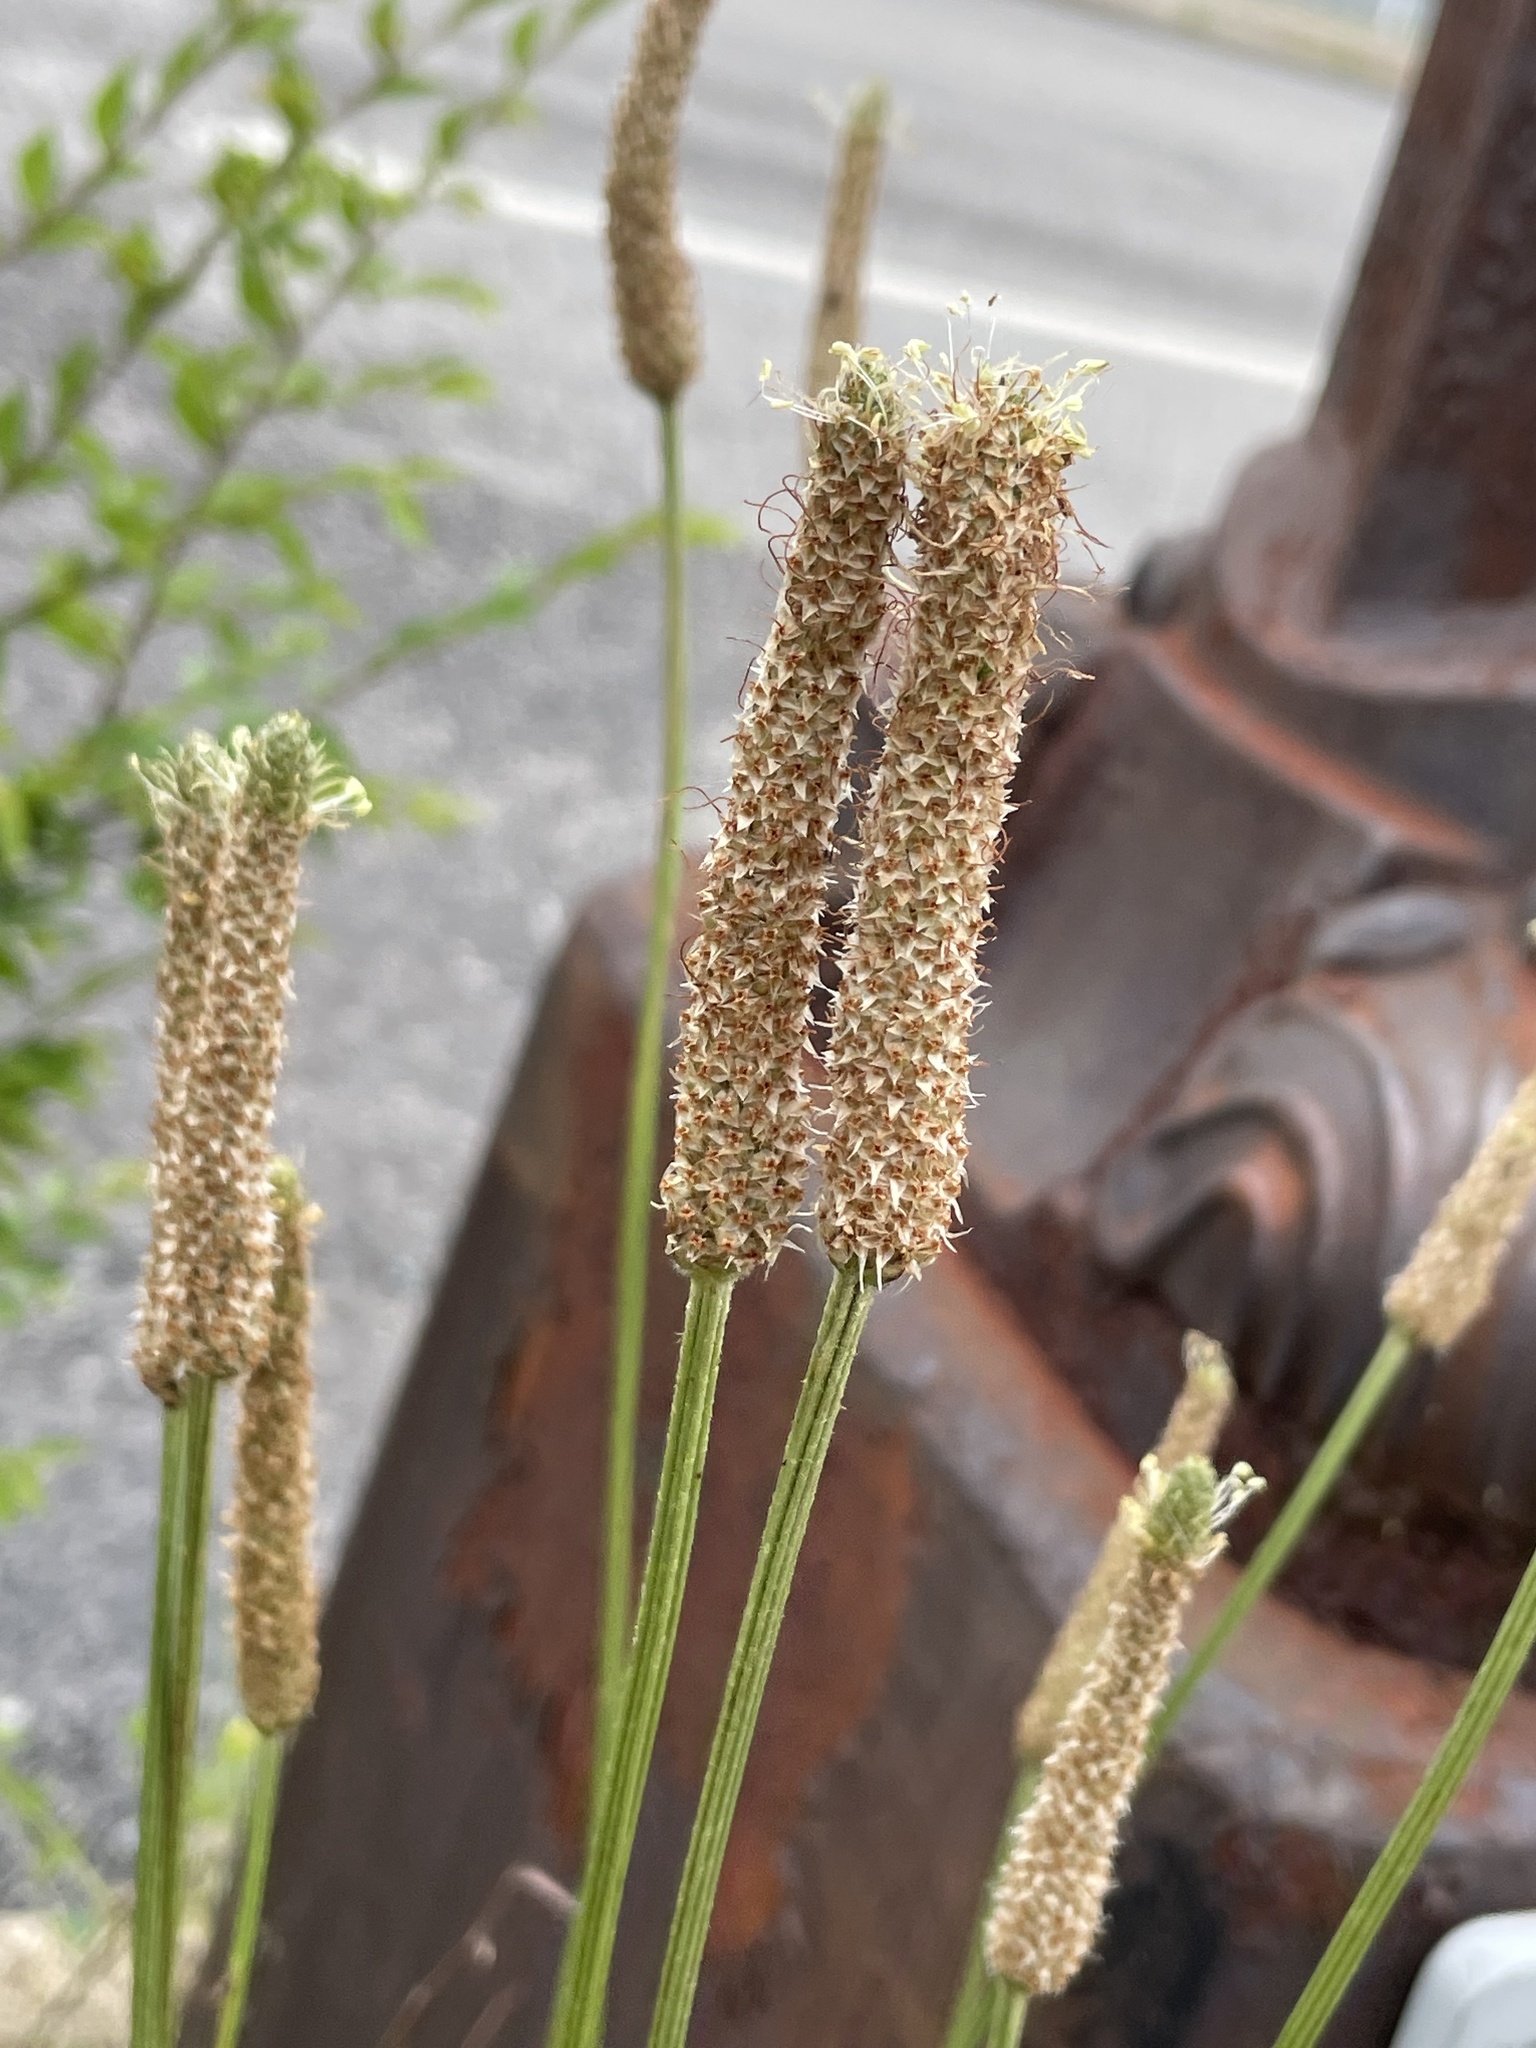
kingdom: Plantae
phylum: Tracheophyta
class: Magnoliopsida
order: Lamiales
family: Plantaginaceae
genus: Plantago
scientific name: Plantago lanceolata
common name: Ribwort plantain
